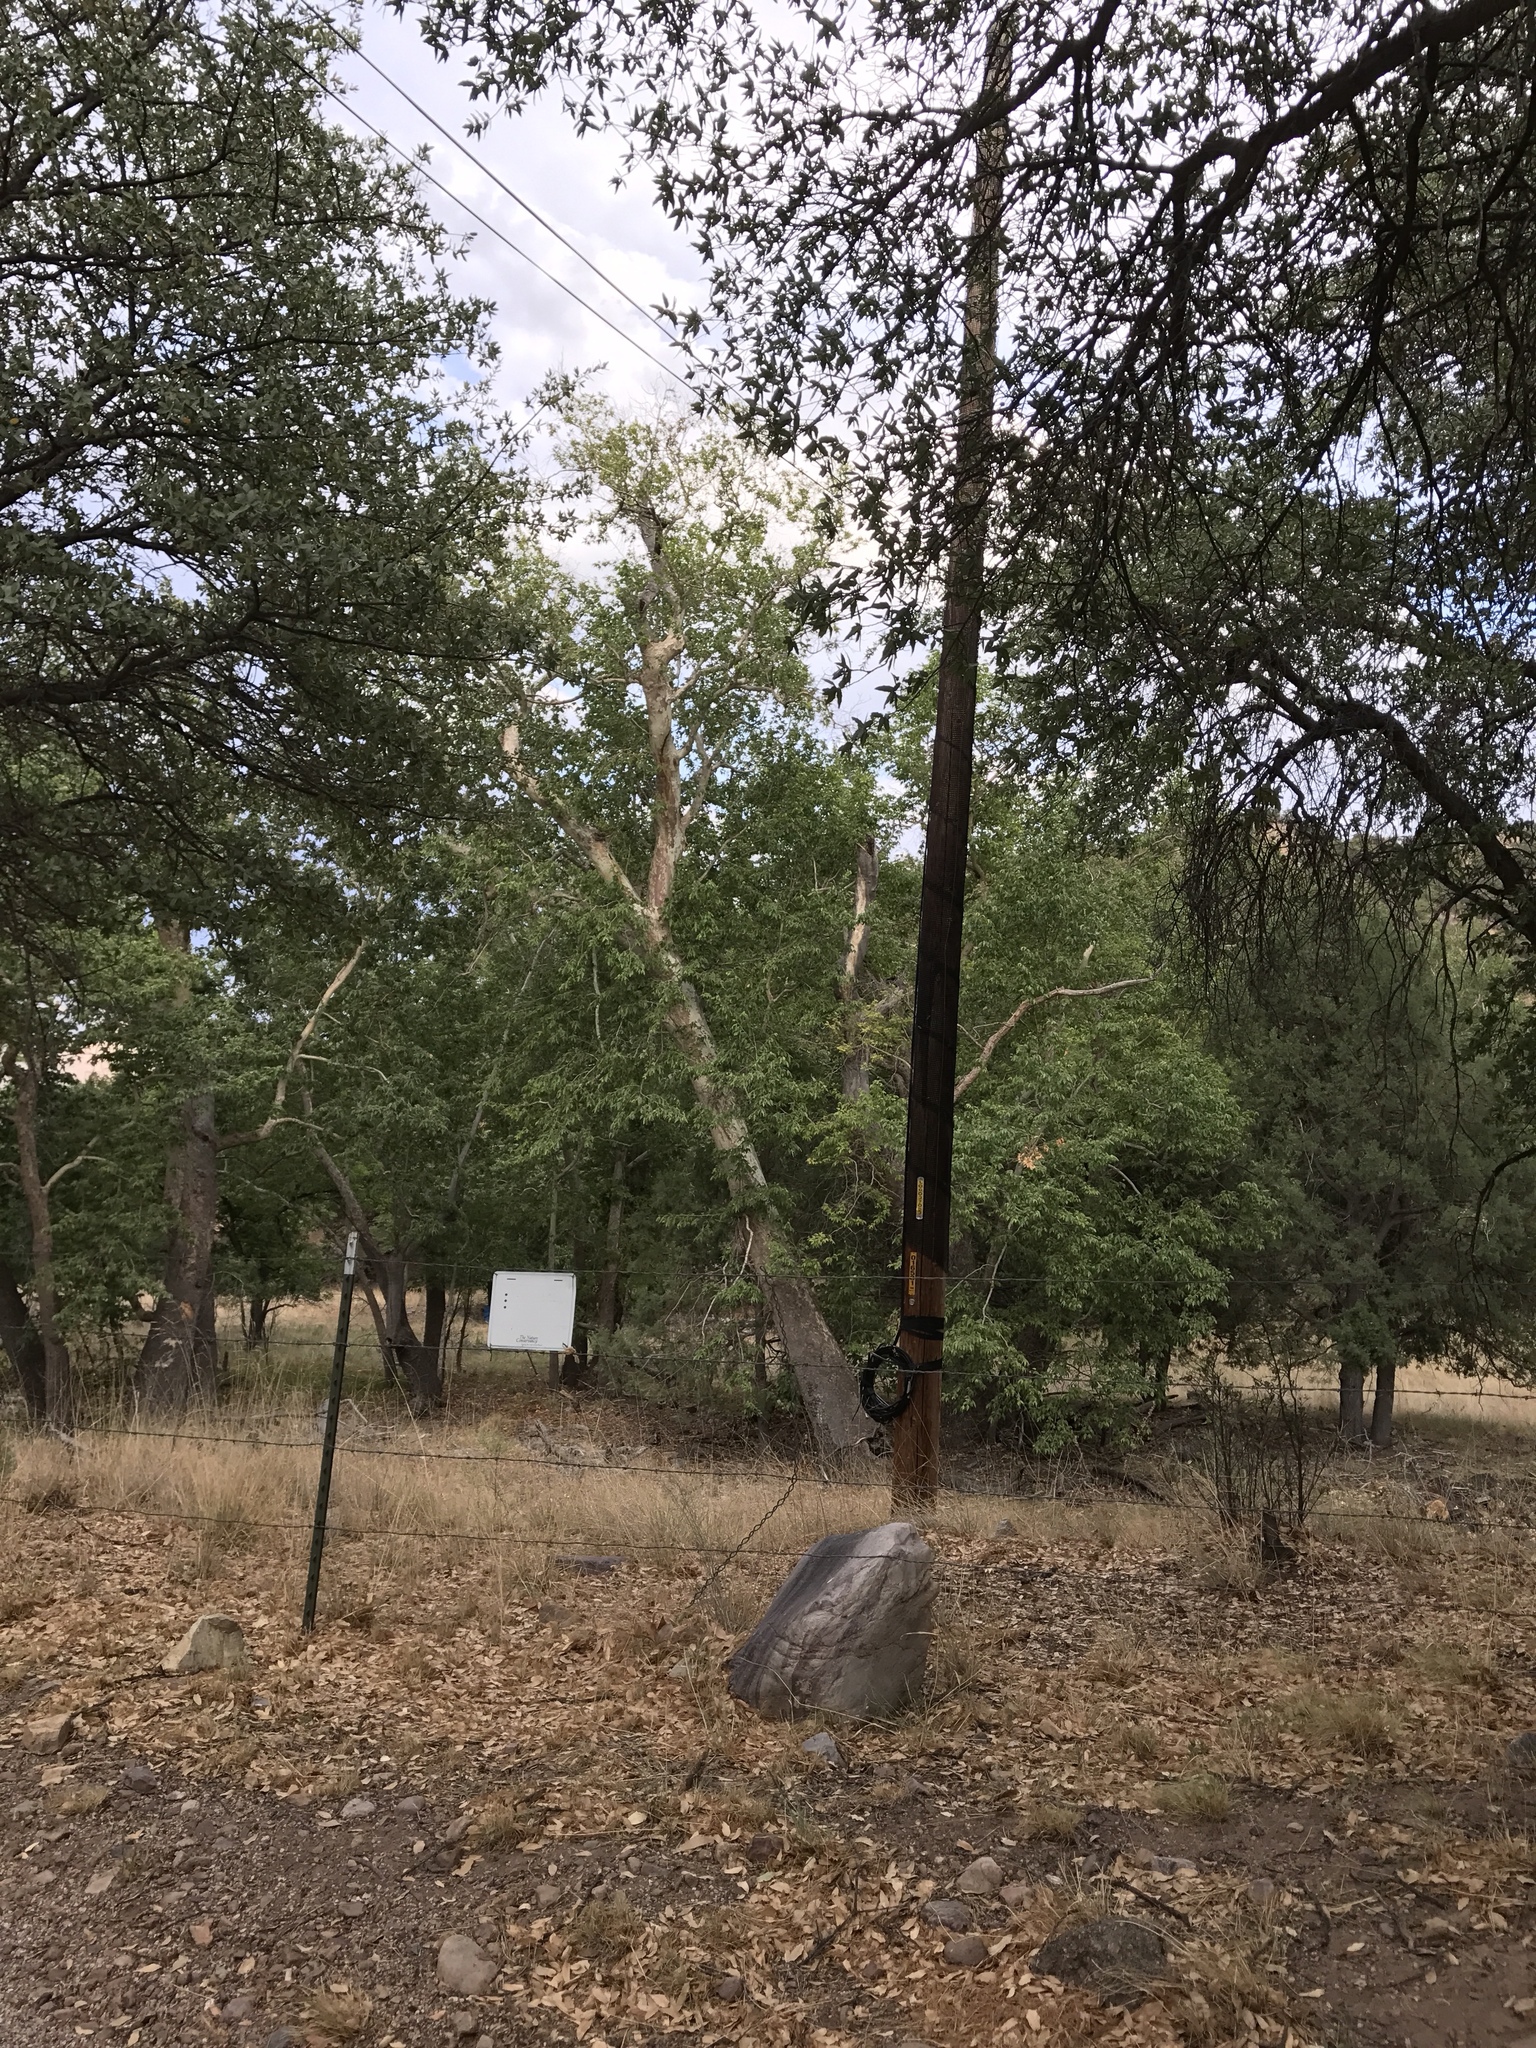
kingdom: Plantae
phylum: Tracheophyta
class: Magnoliopsida
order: Proteales
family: Platanaceae
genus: Platanus
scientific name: Platanus wrightii
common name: Arizona sycamore
